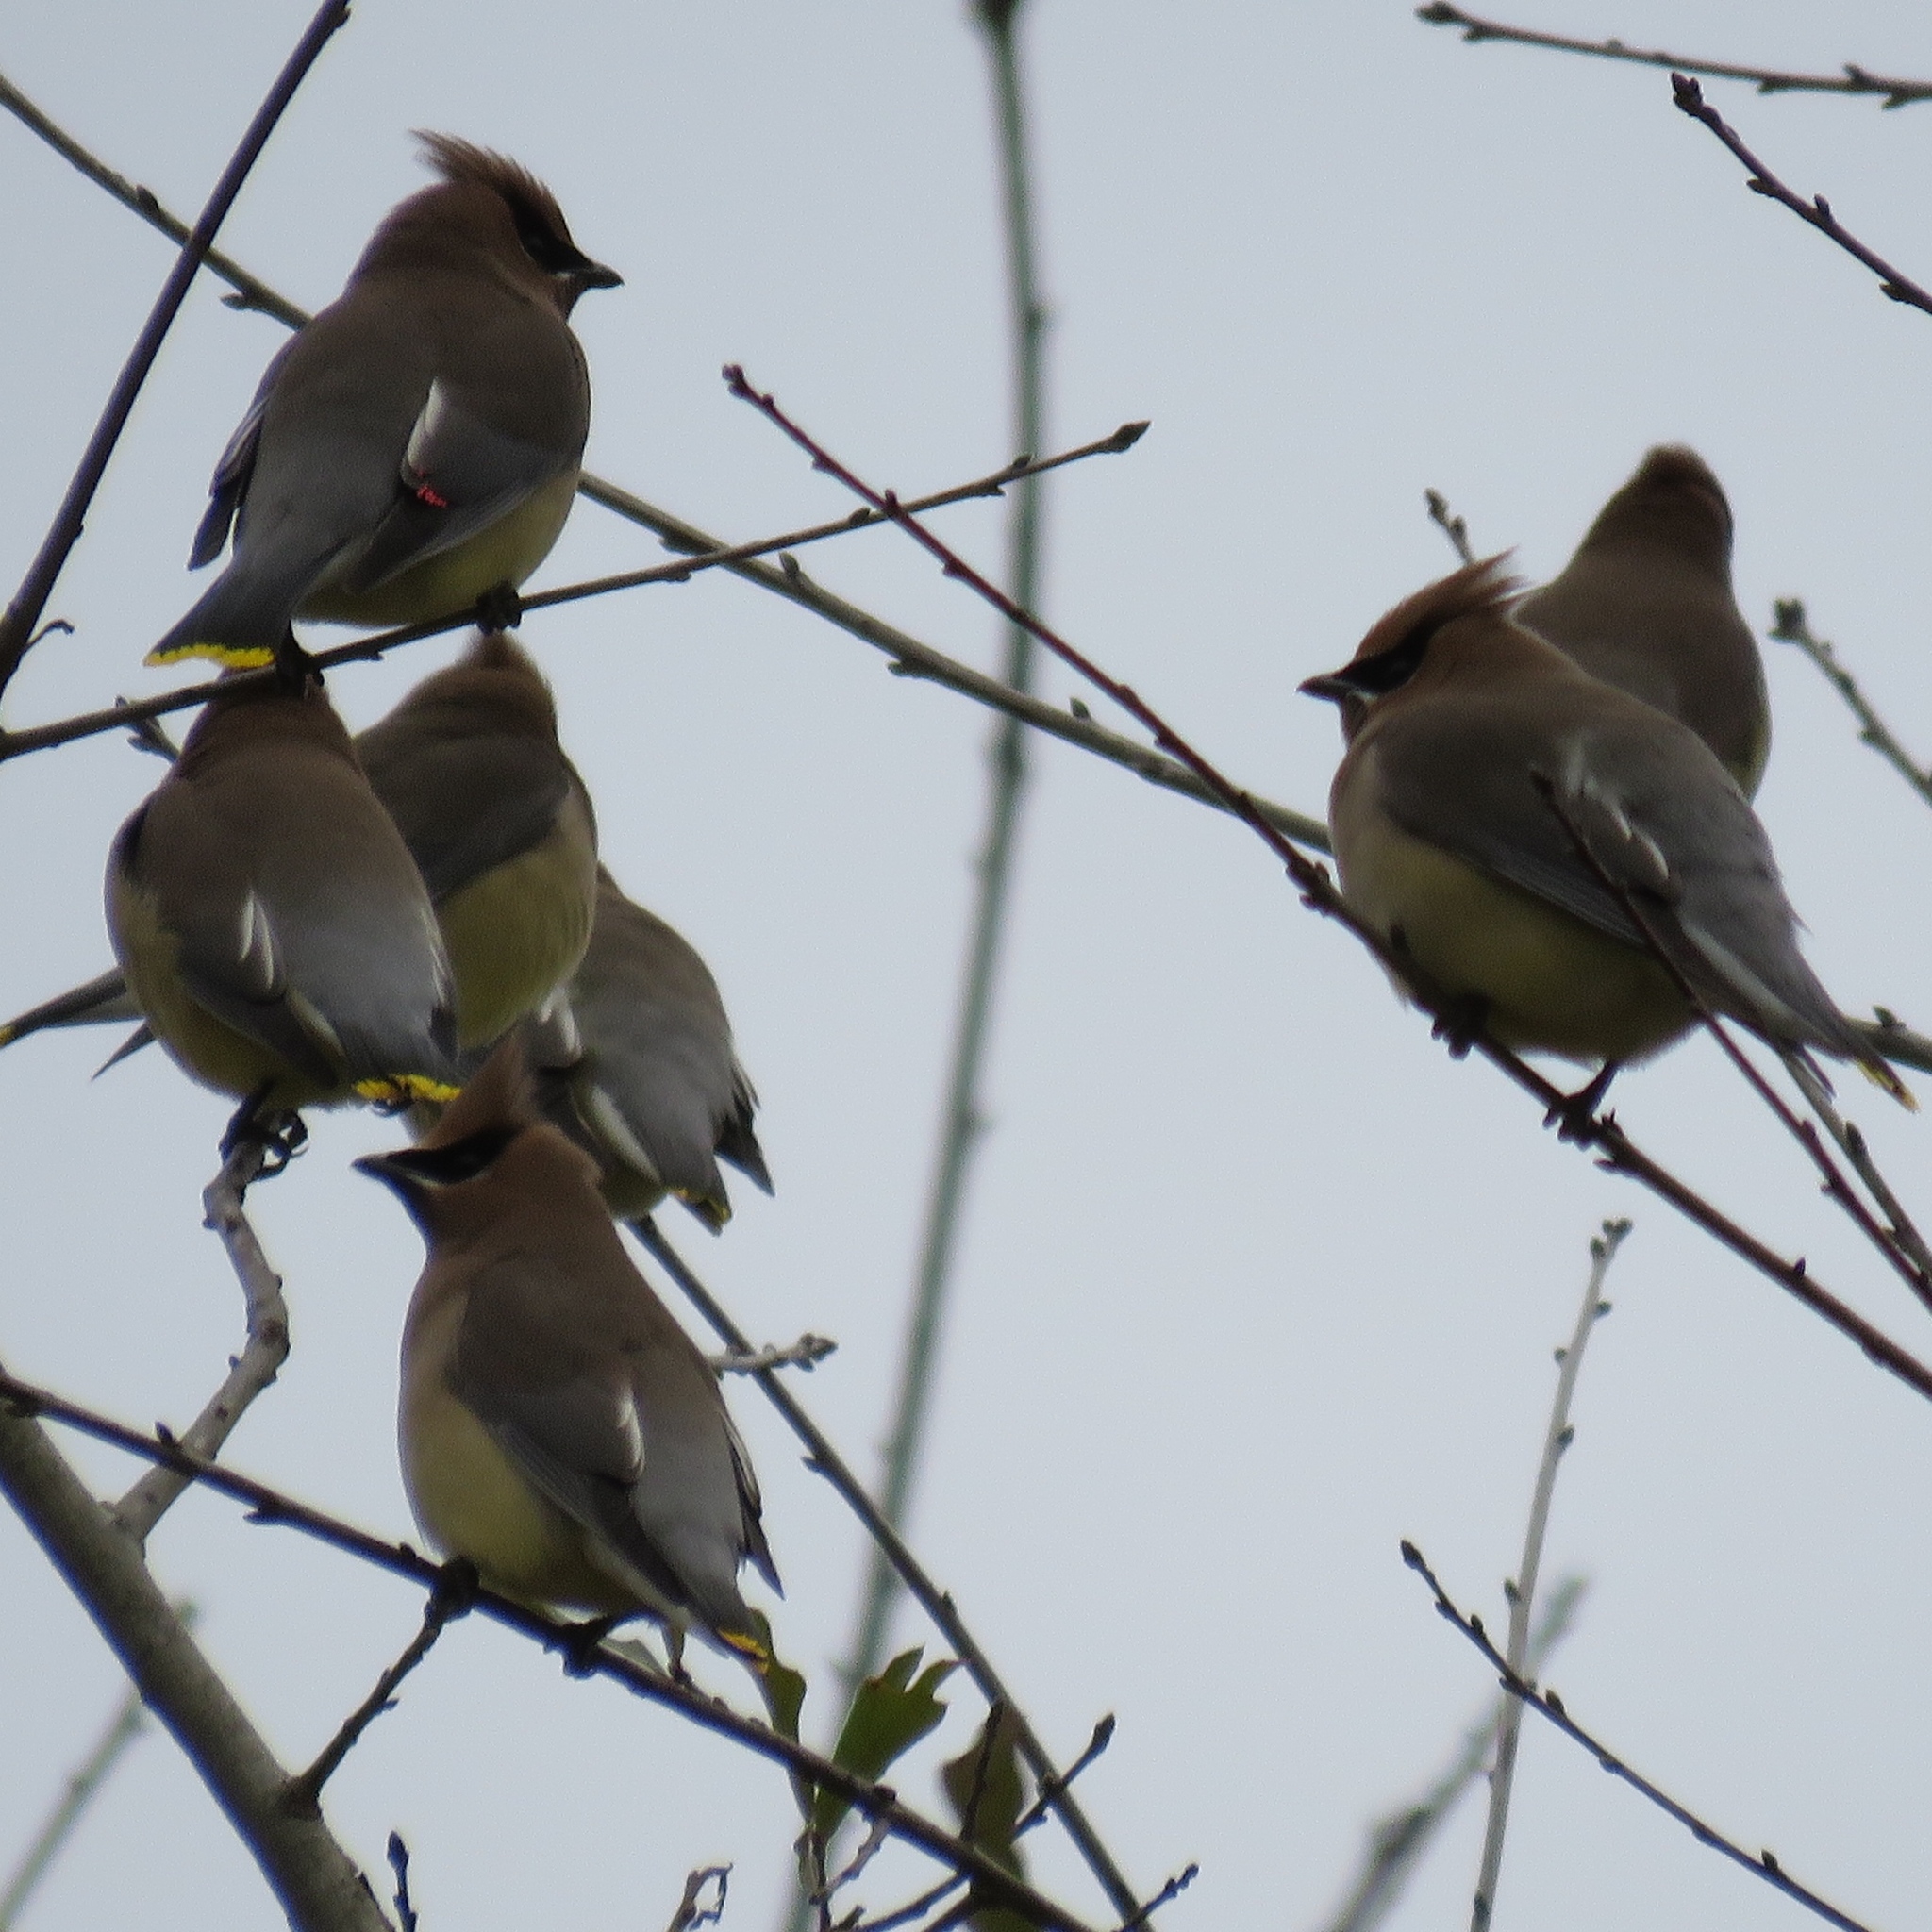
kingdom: Animalia
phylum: Chordata
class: Aves
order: Passeriformes
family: Bombycillidae
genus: Bombycilla
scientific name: Bombycilla cedrorum
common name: Cedar waxwing
